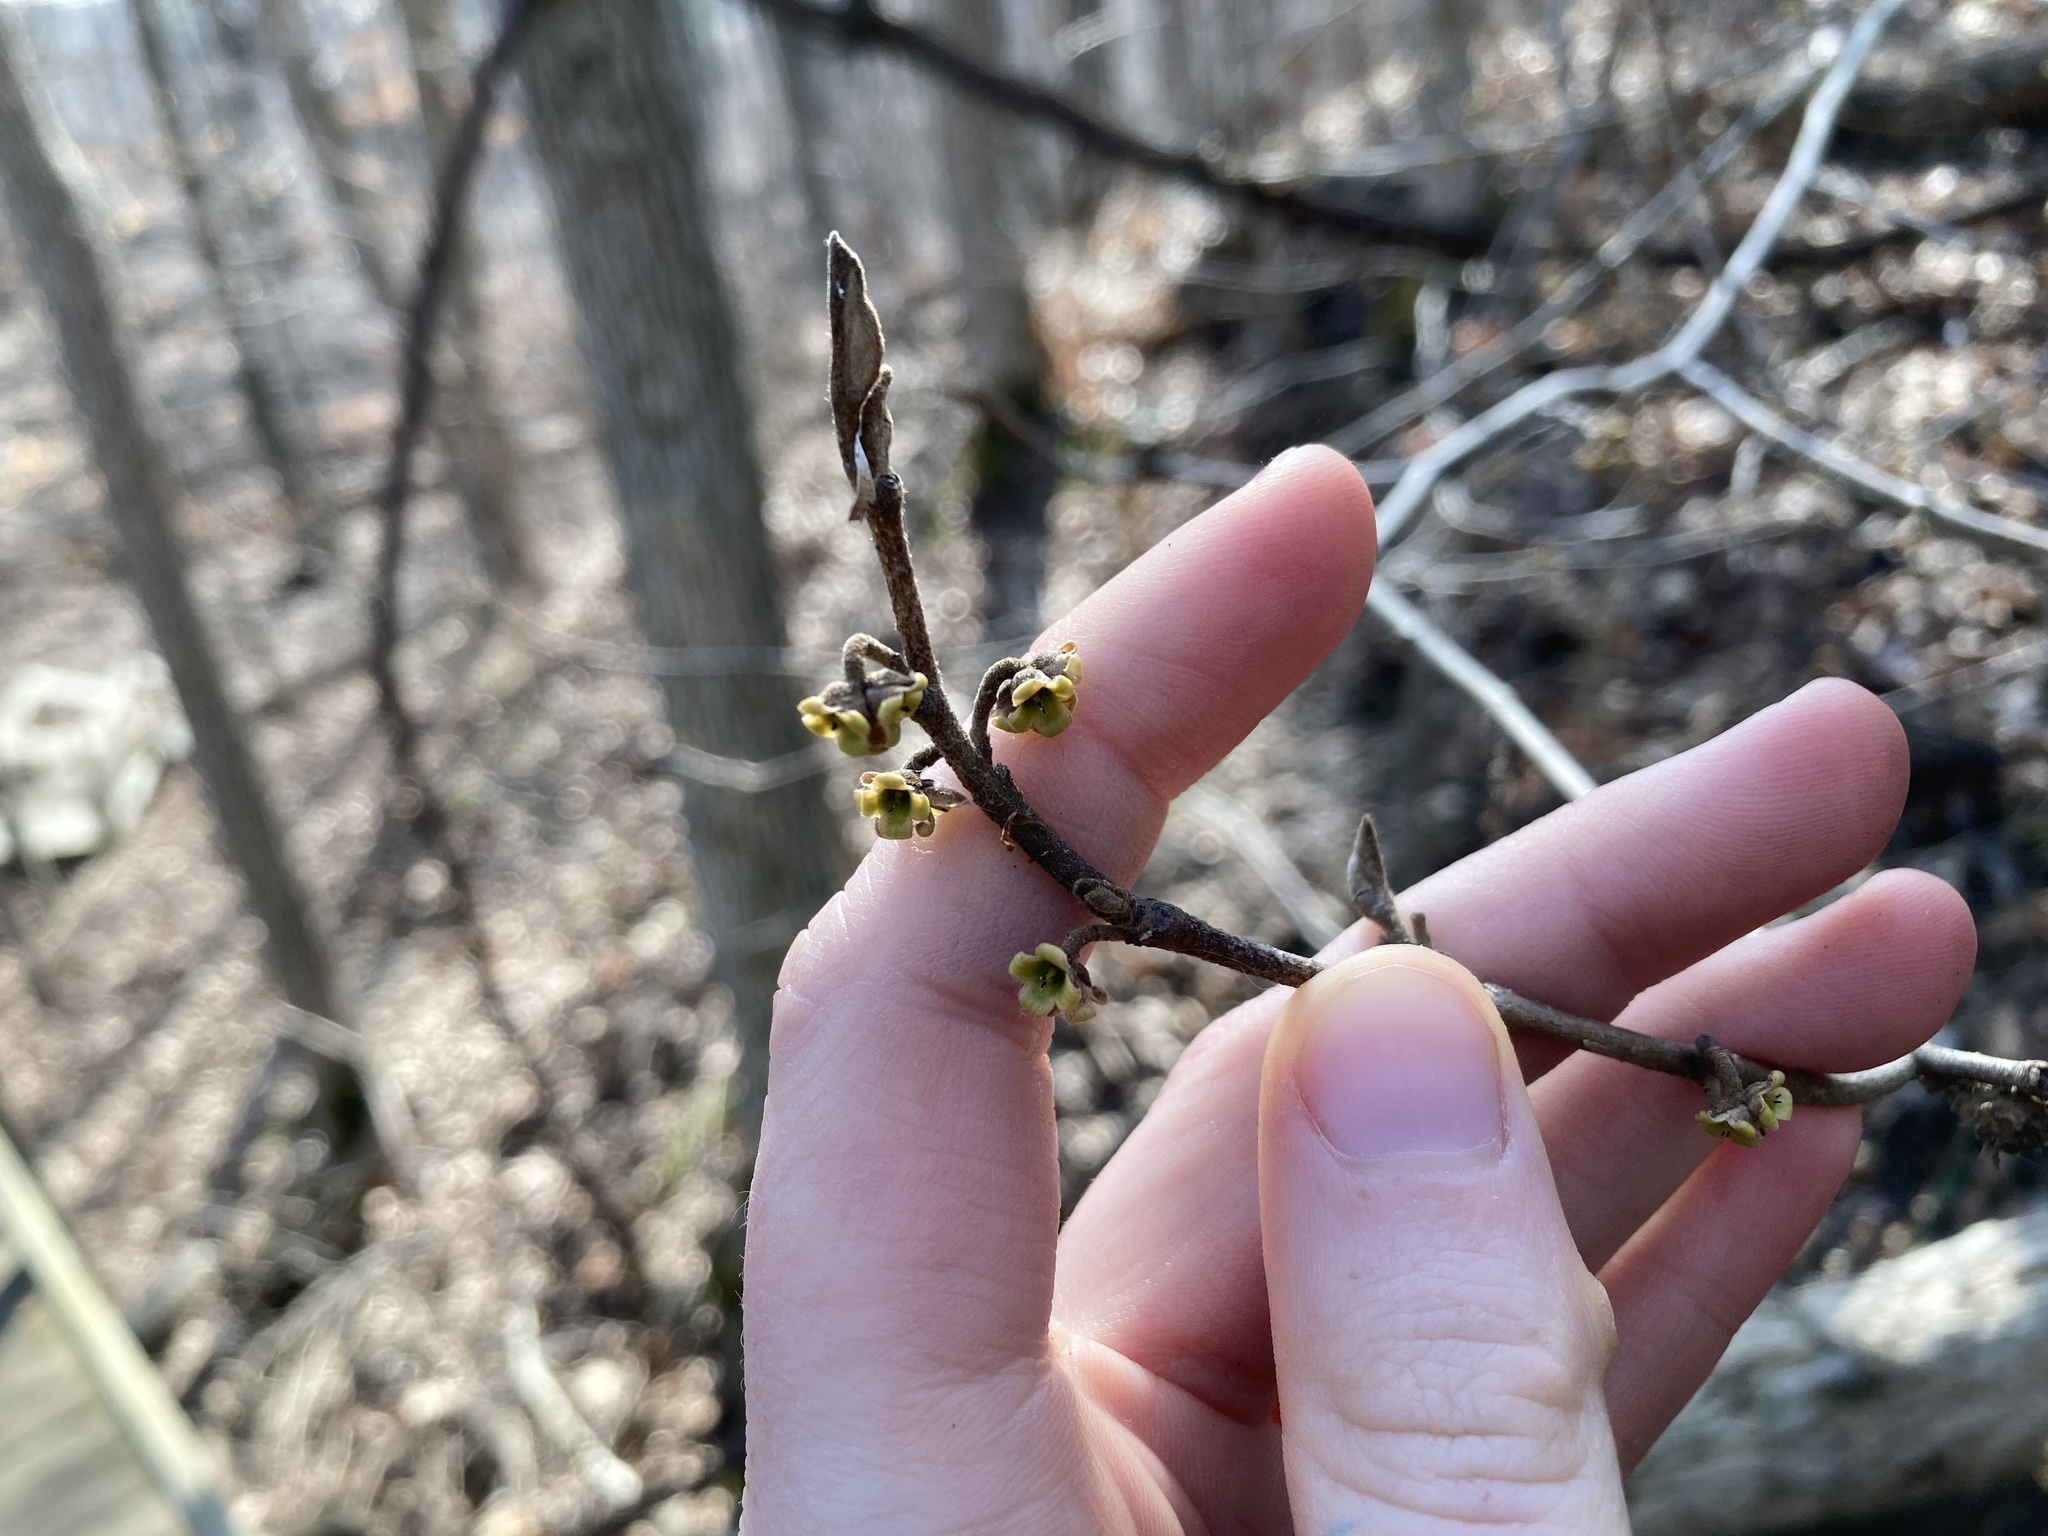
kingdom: Plantae
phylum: Tracheophyta
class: Magnoliopsida
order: Saxifragales
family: Hamamelidaceae
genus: Hamamelis
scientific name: Hamamelis virginiana
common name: Witch-hazel
